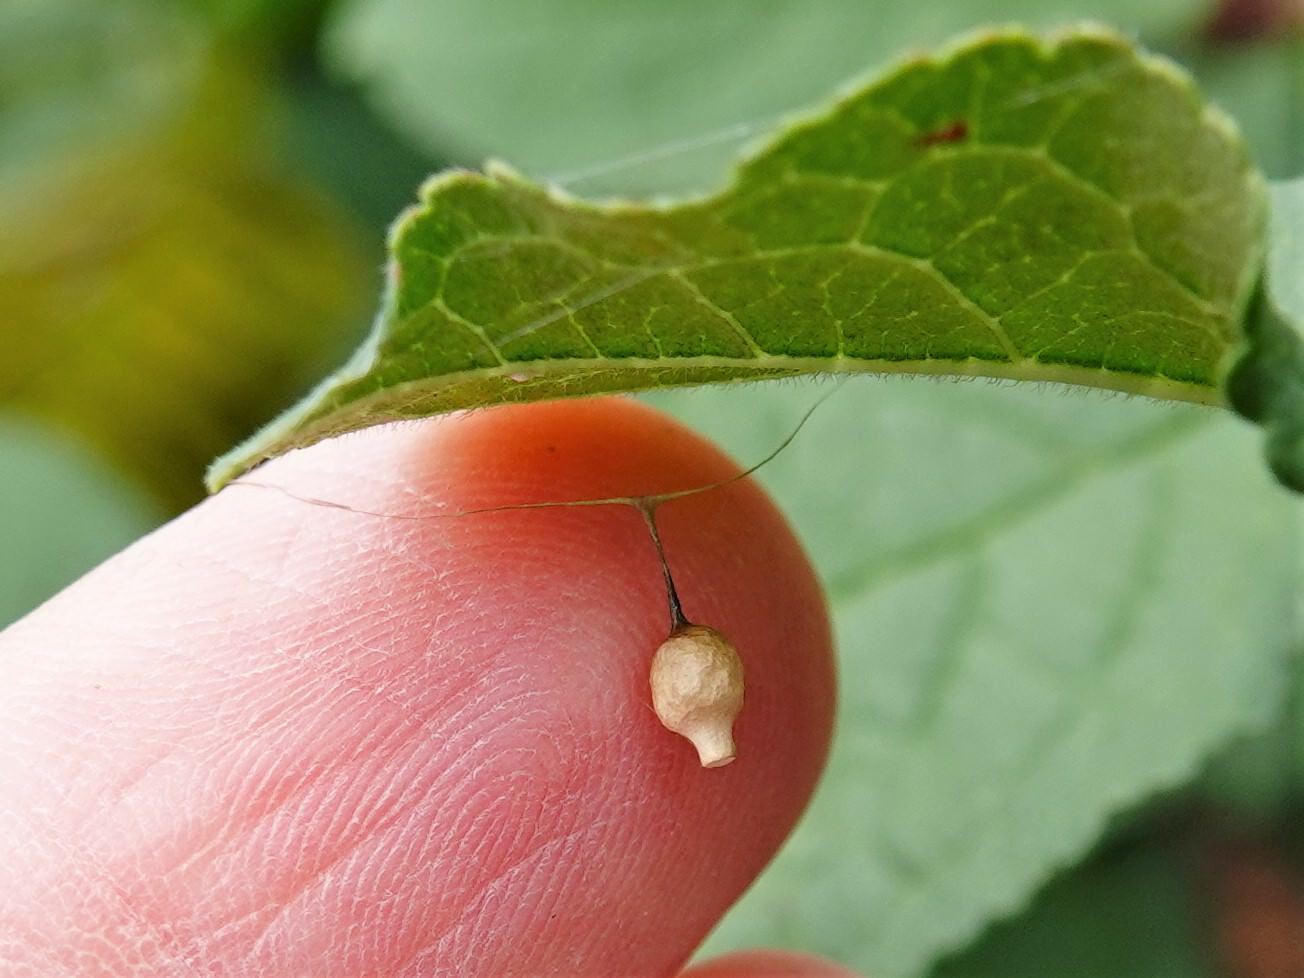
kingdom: Animalia
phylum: Arthropoda
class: Arachnida
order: Araneae
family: Theridiidae
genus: Argyrodes
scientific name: Argyrodes antipodianus
